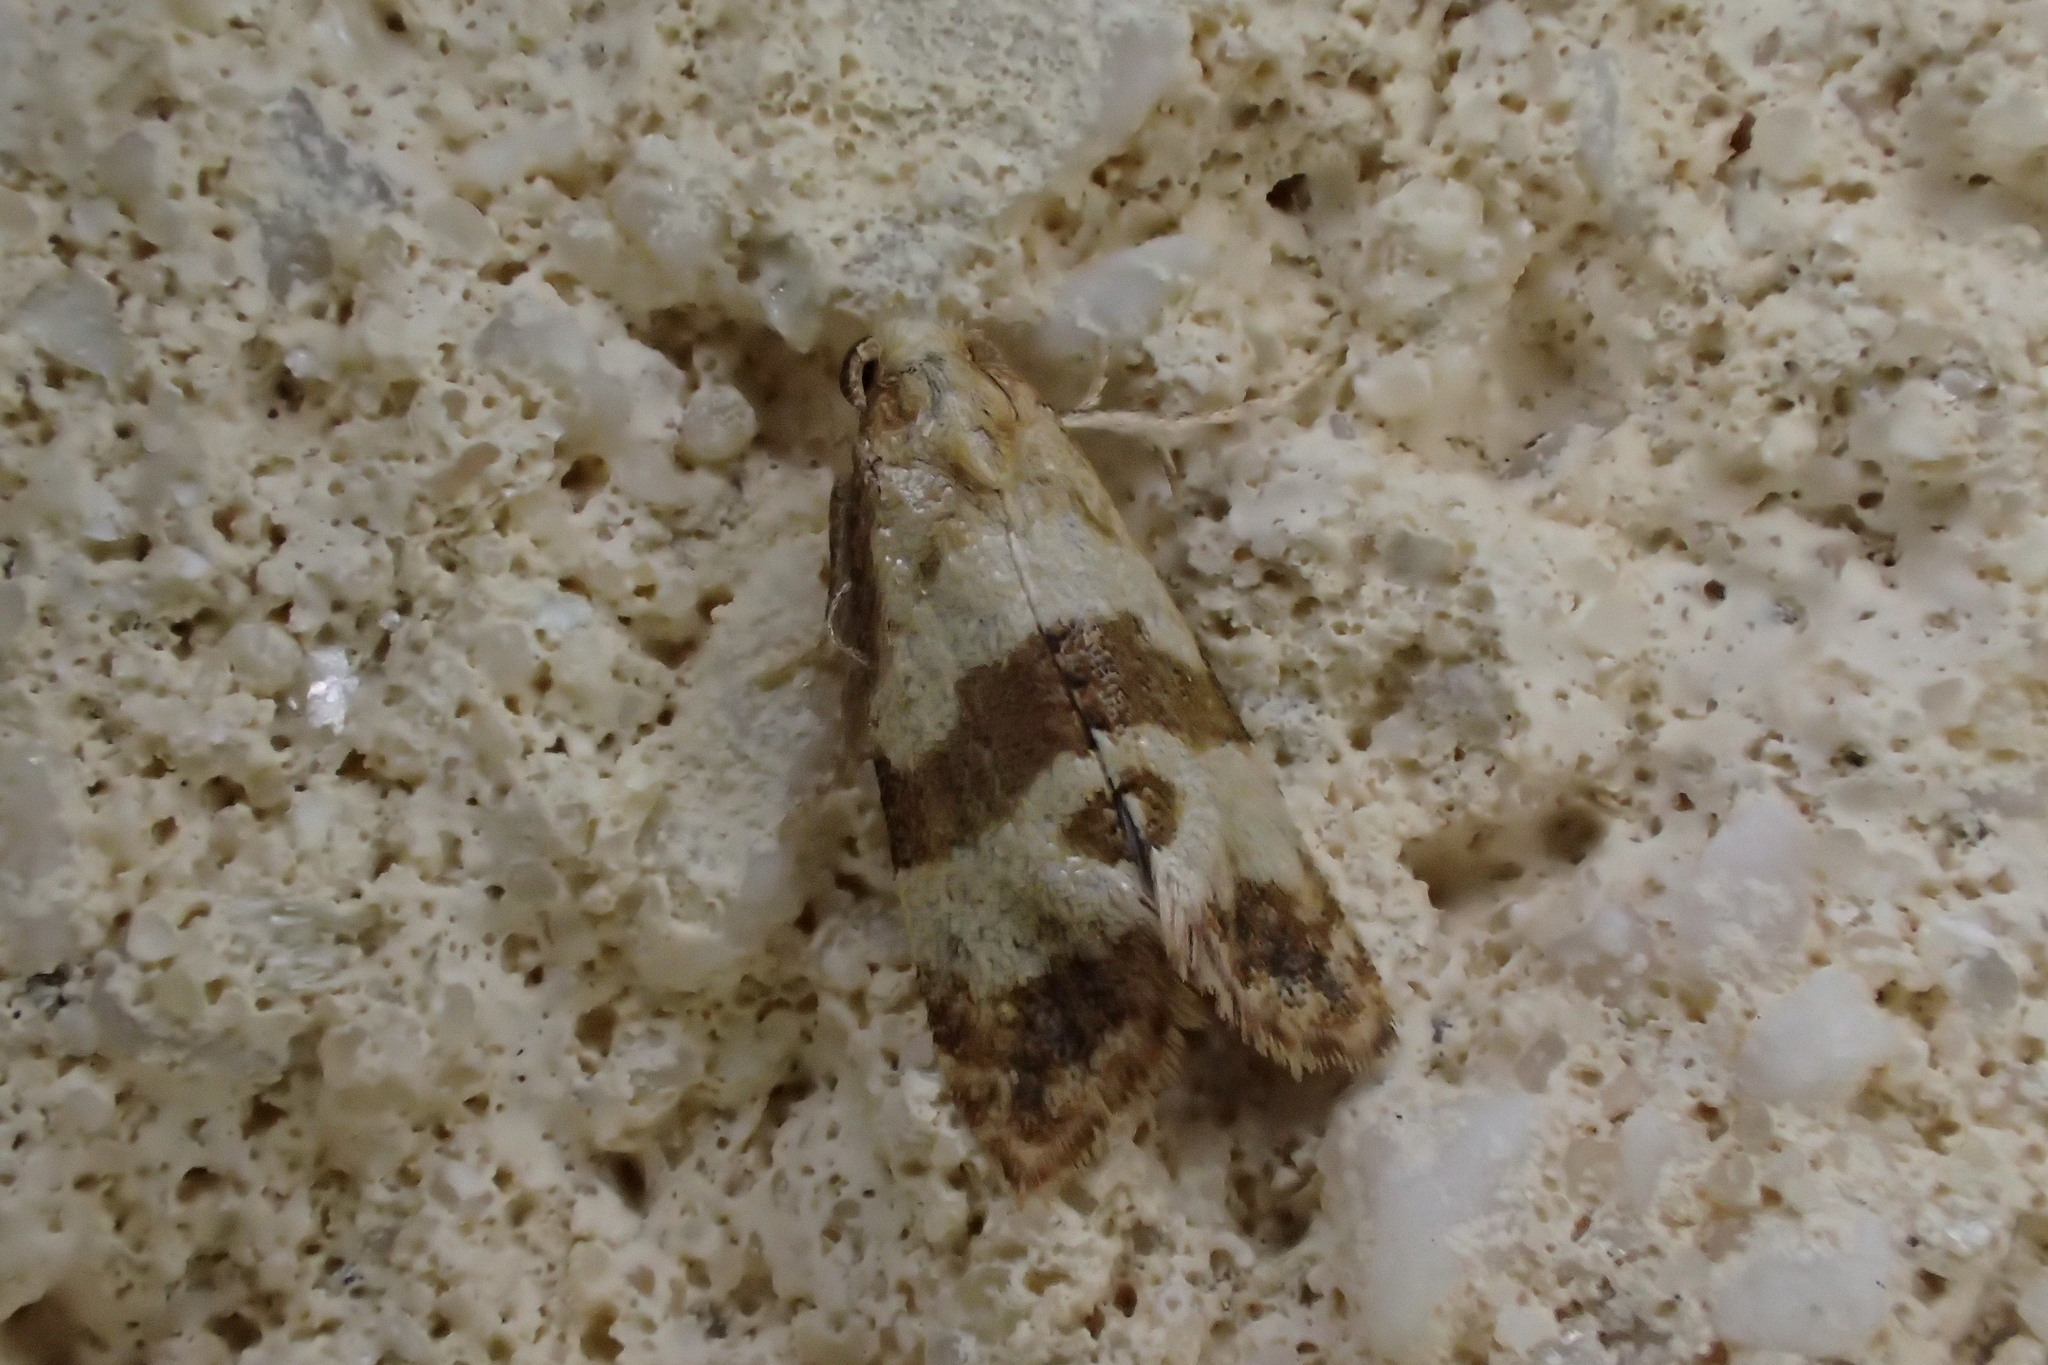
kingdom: Animalia
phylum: Arthropoda
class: Insecta
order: Lepidoptera
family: Tortricidae
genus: Phalonidia
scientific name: Phalonidia contractana
